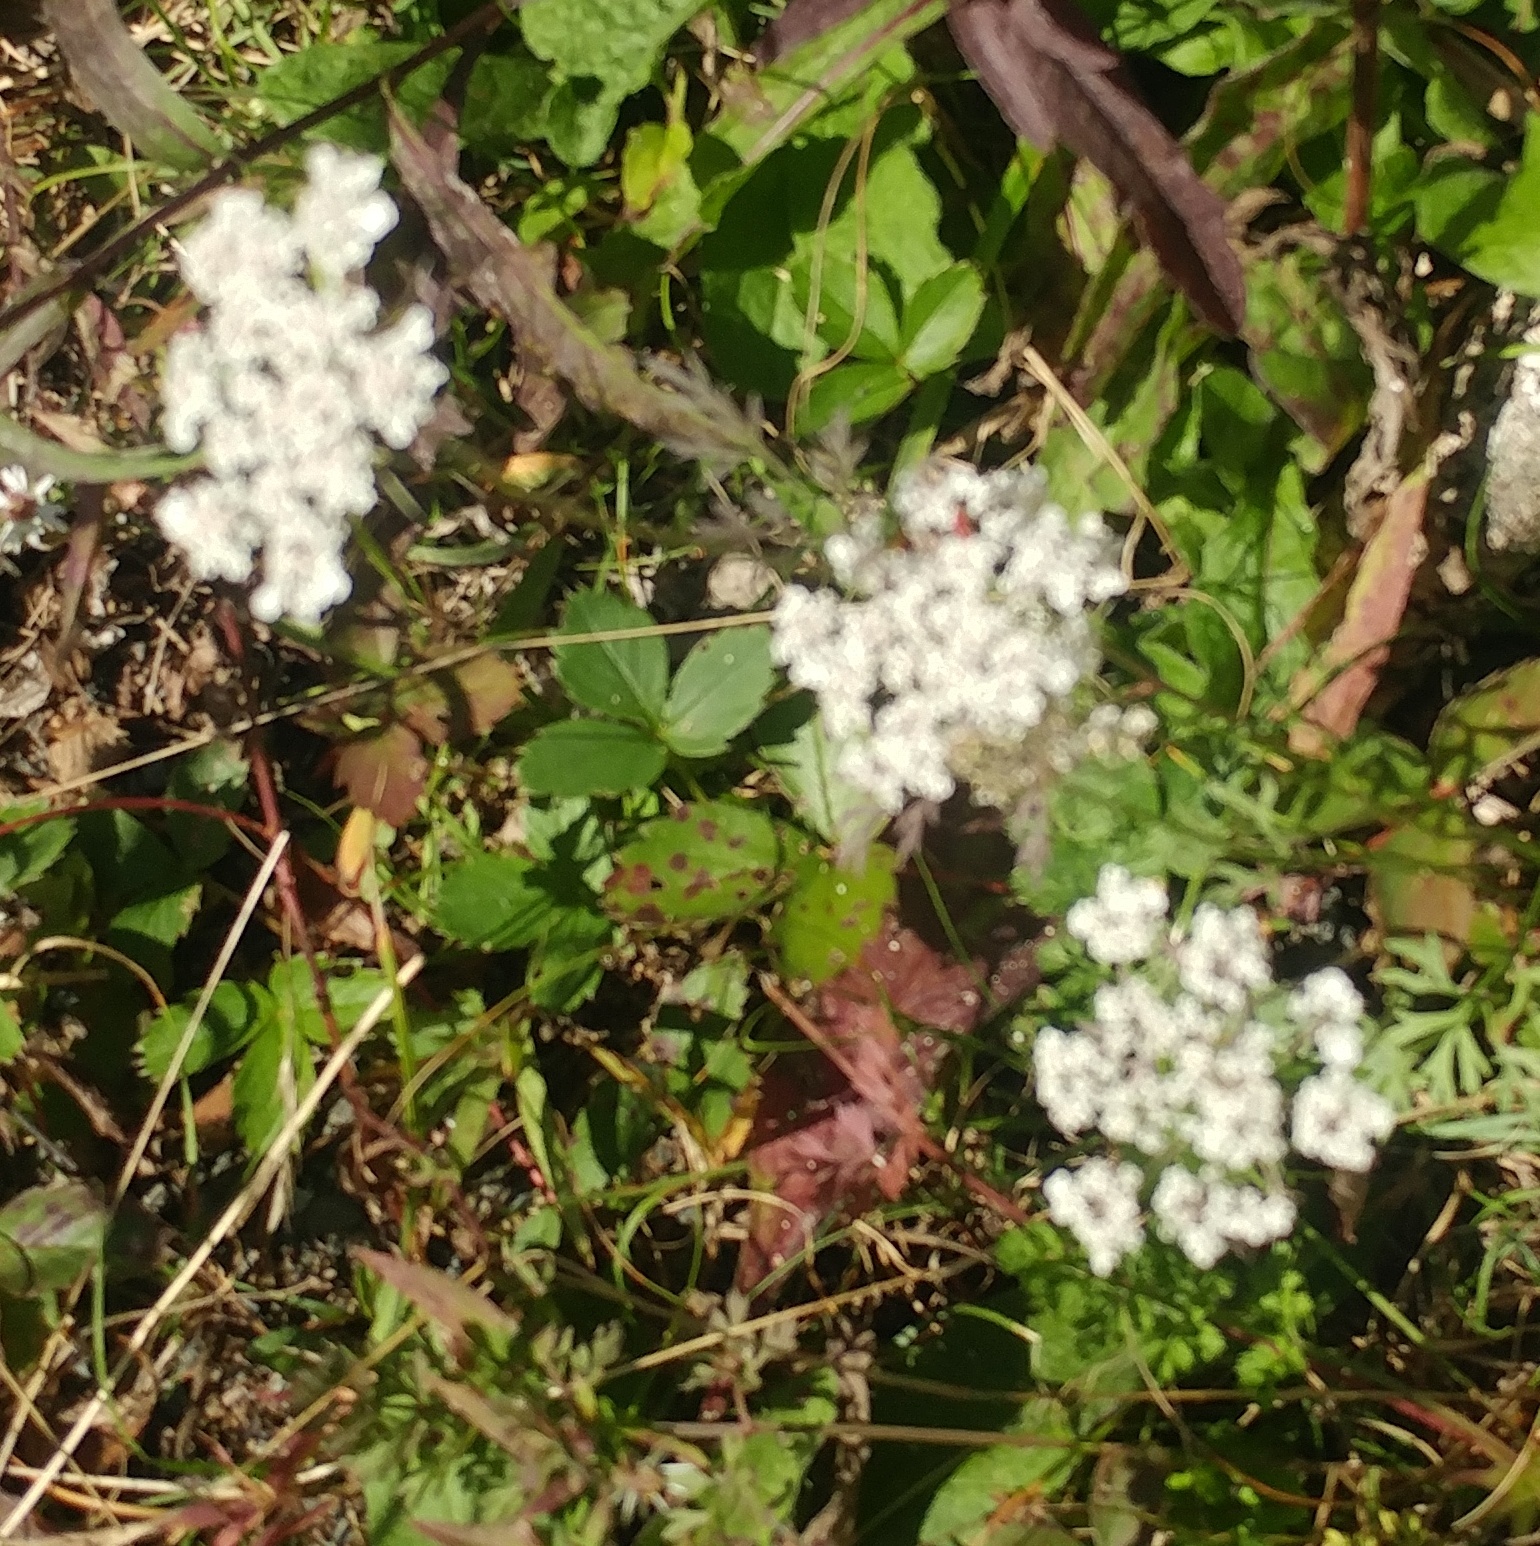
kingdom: Plantae
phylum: Tracheophyta
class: Magnoliopsida
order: Asterales
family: Asteraceae
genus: Achillea
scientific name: Achillea millefolium
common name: Yarrow
